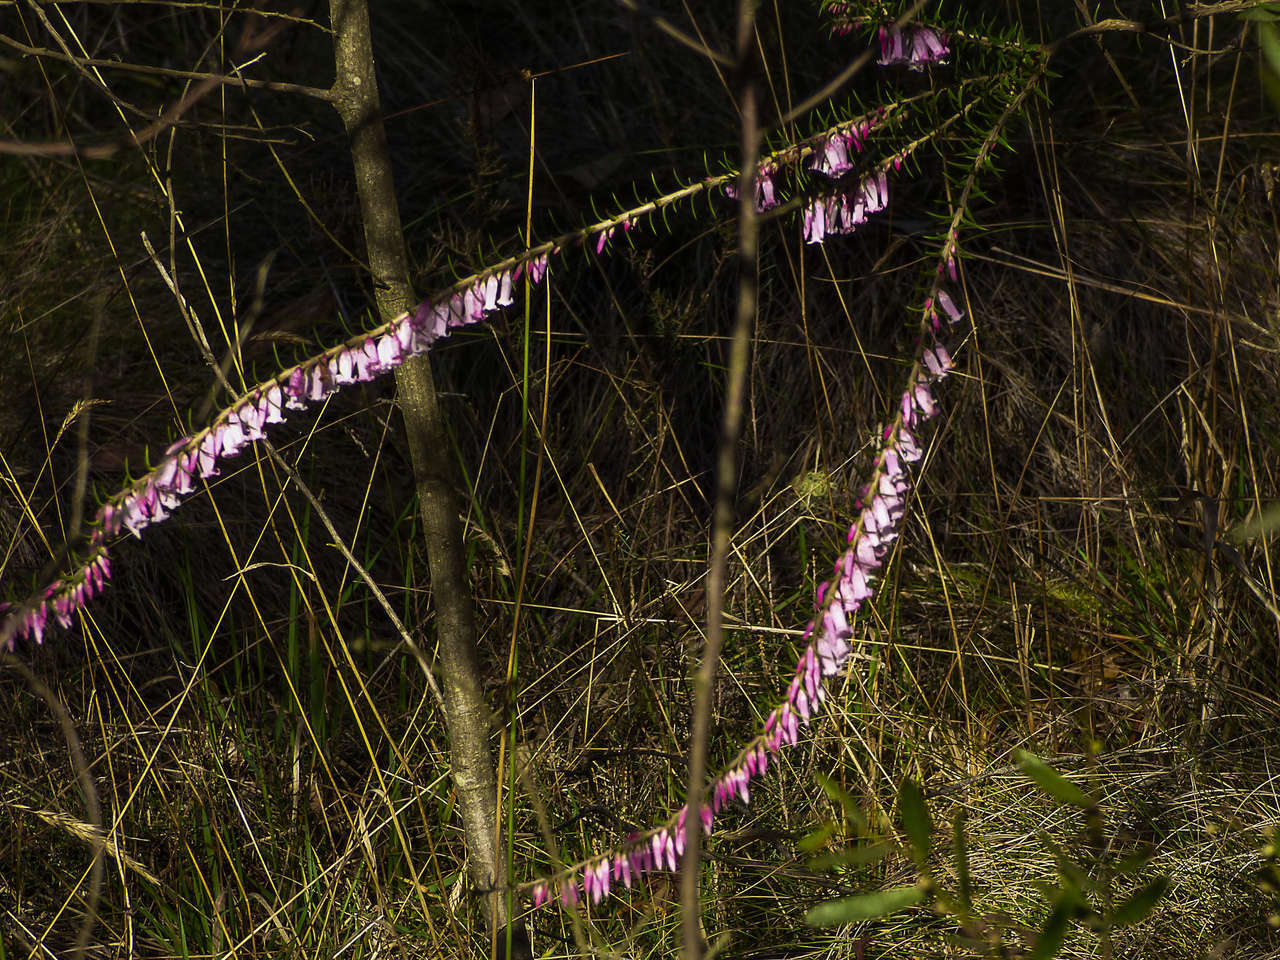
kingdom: Plantae
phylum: Tracheophyta
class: Magnoliopsida
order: Ericales
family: Ericaceae
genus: Epacris
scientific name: Epacris impressa
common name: Common-heath
